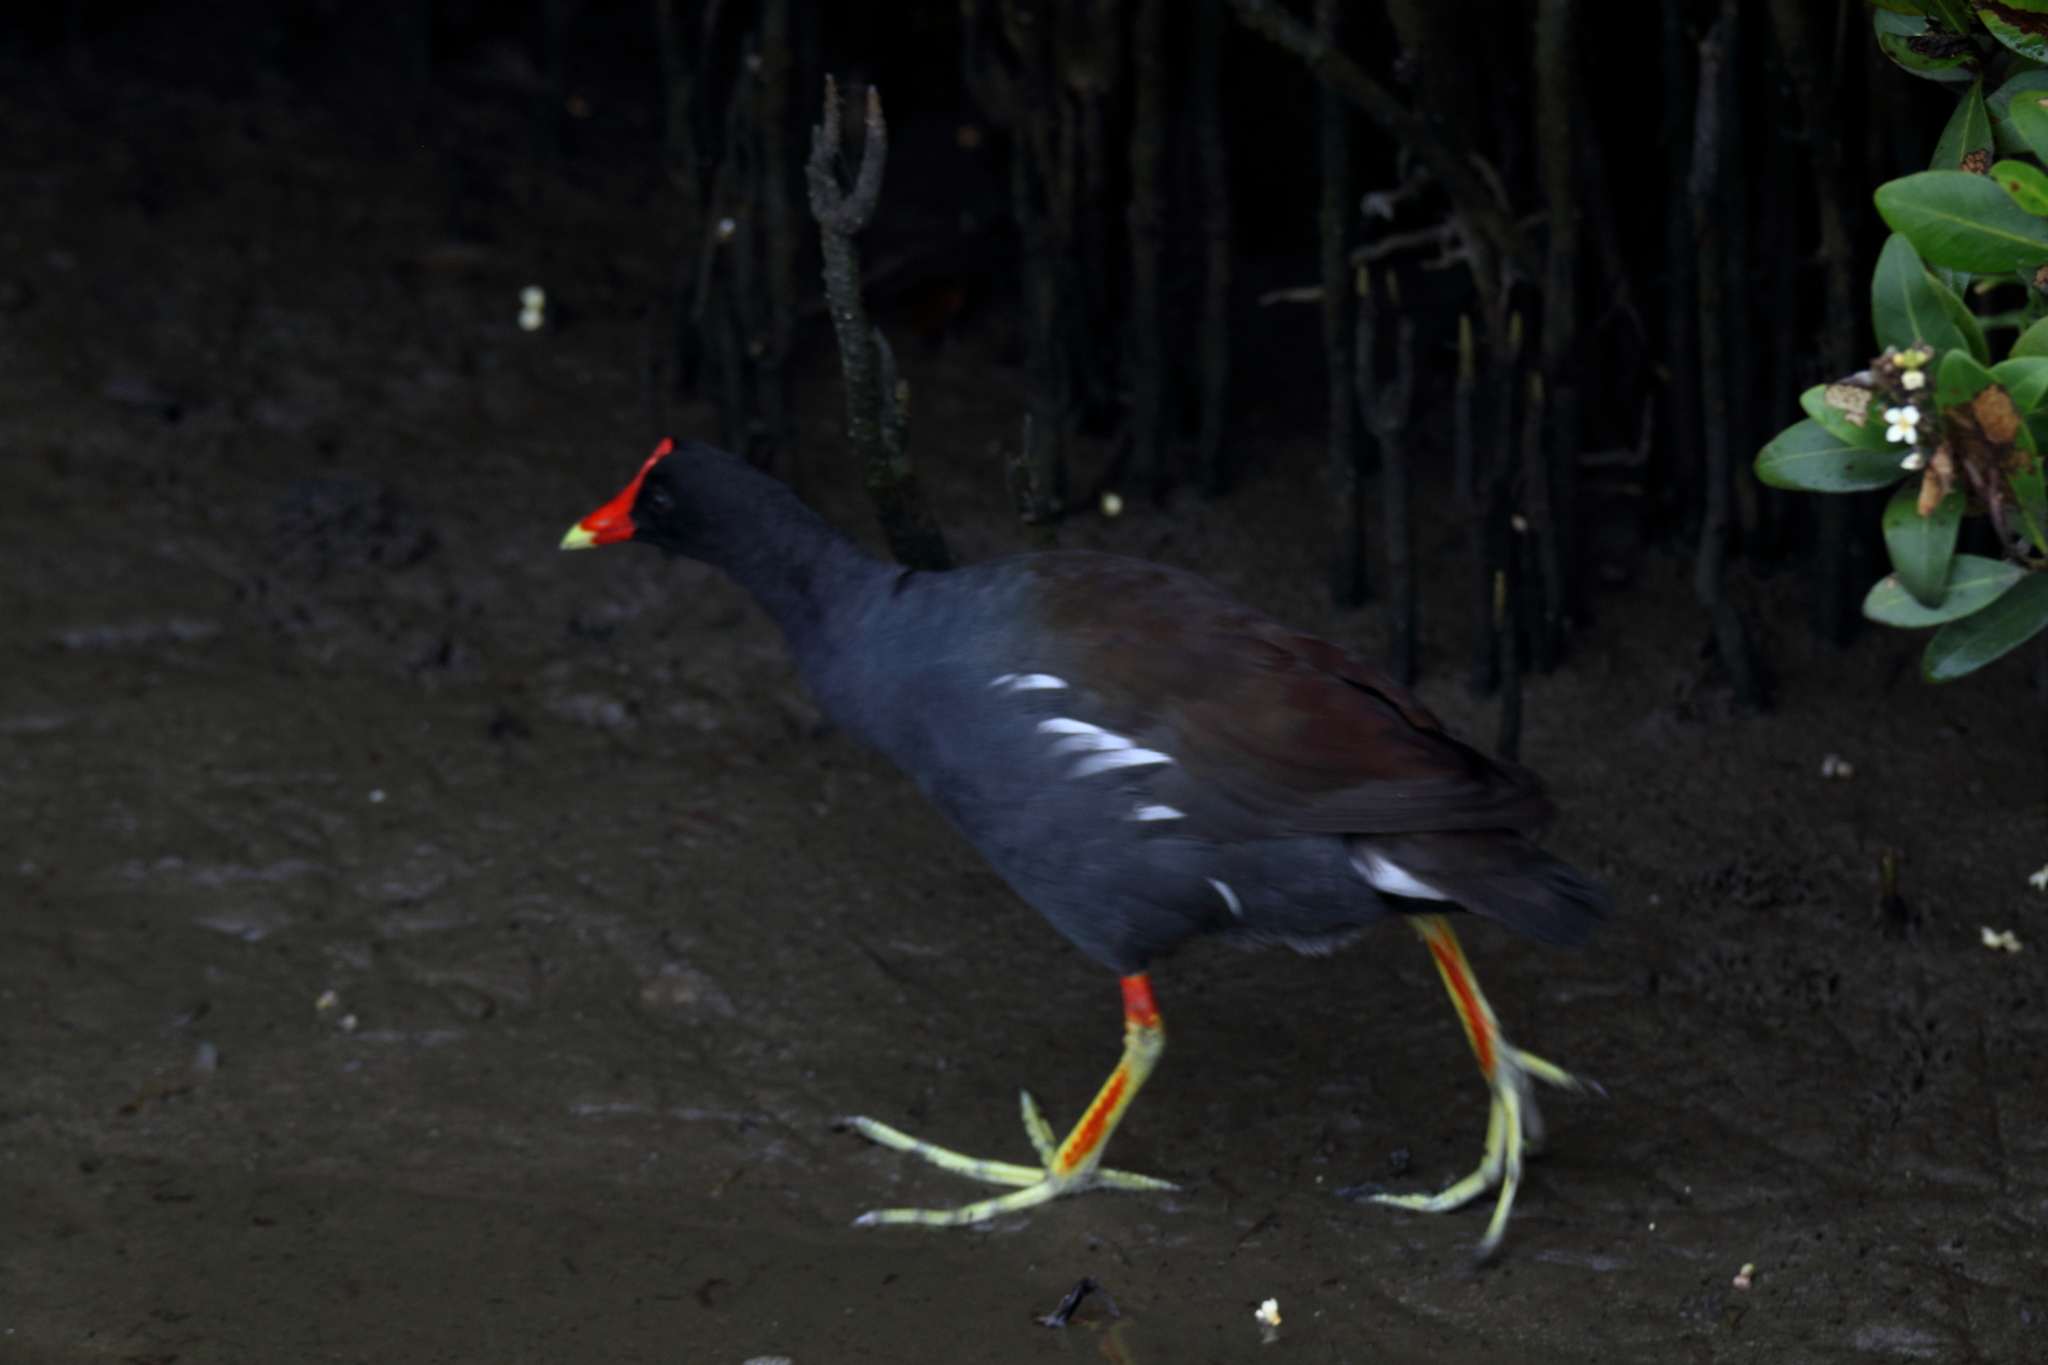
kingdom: Animalia
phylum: Chordata
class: Aves
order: Gruiformes
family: Rallidae
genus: Gallinula
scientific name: Gallinula chloropus
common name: Common moorhen
